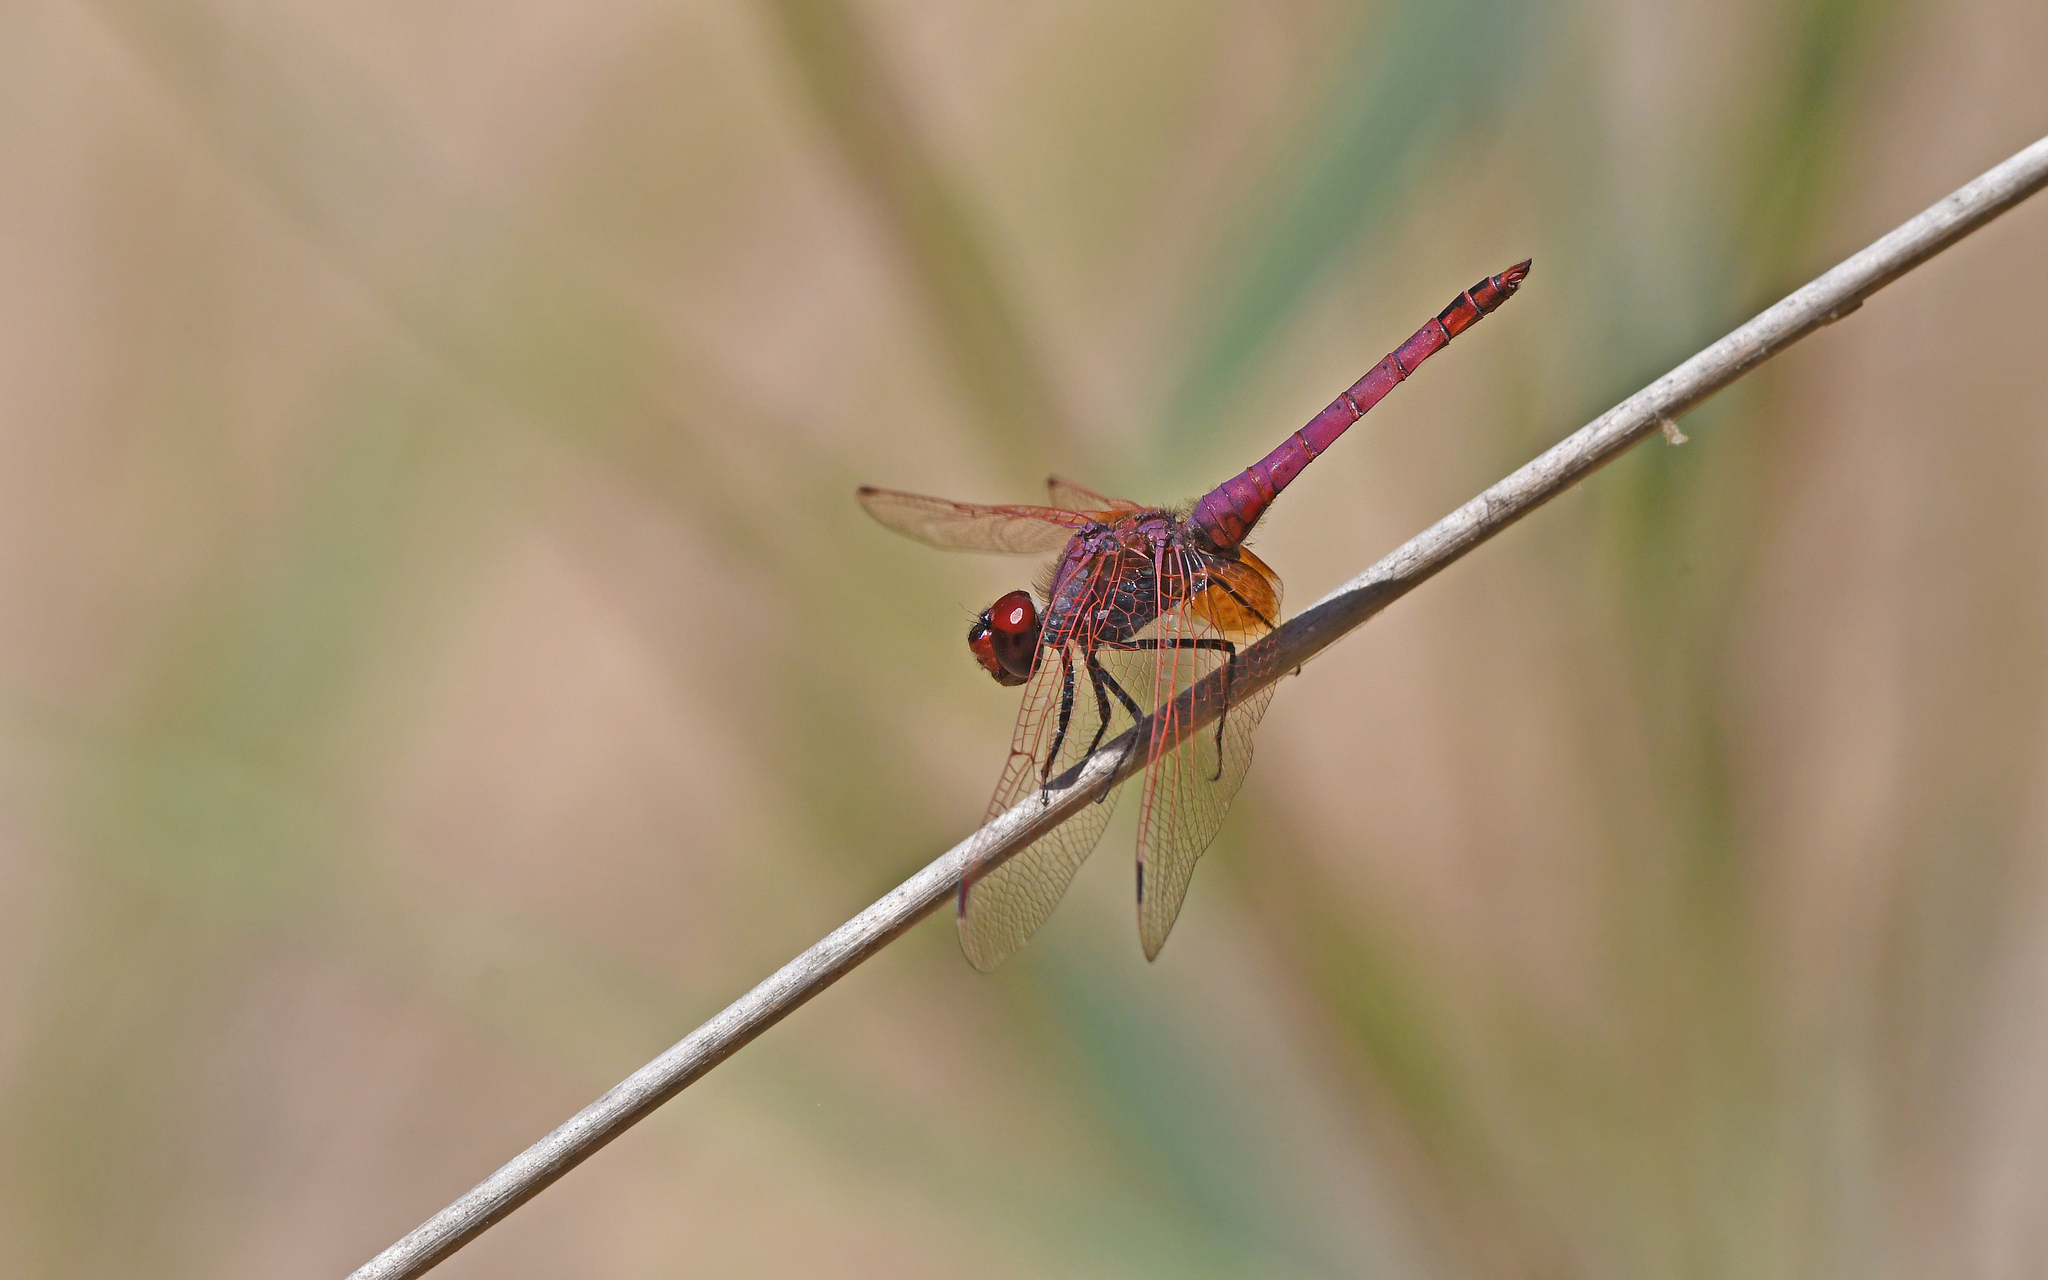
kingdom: Animalia
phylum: Arthropoda
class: Insecta
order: Odonata
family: Libellulidae
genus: Trithemis
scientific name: Trithemis annulata
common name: Violet dropwing
